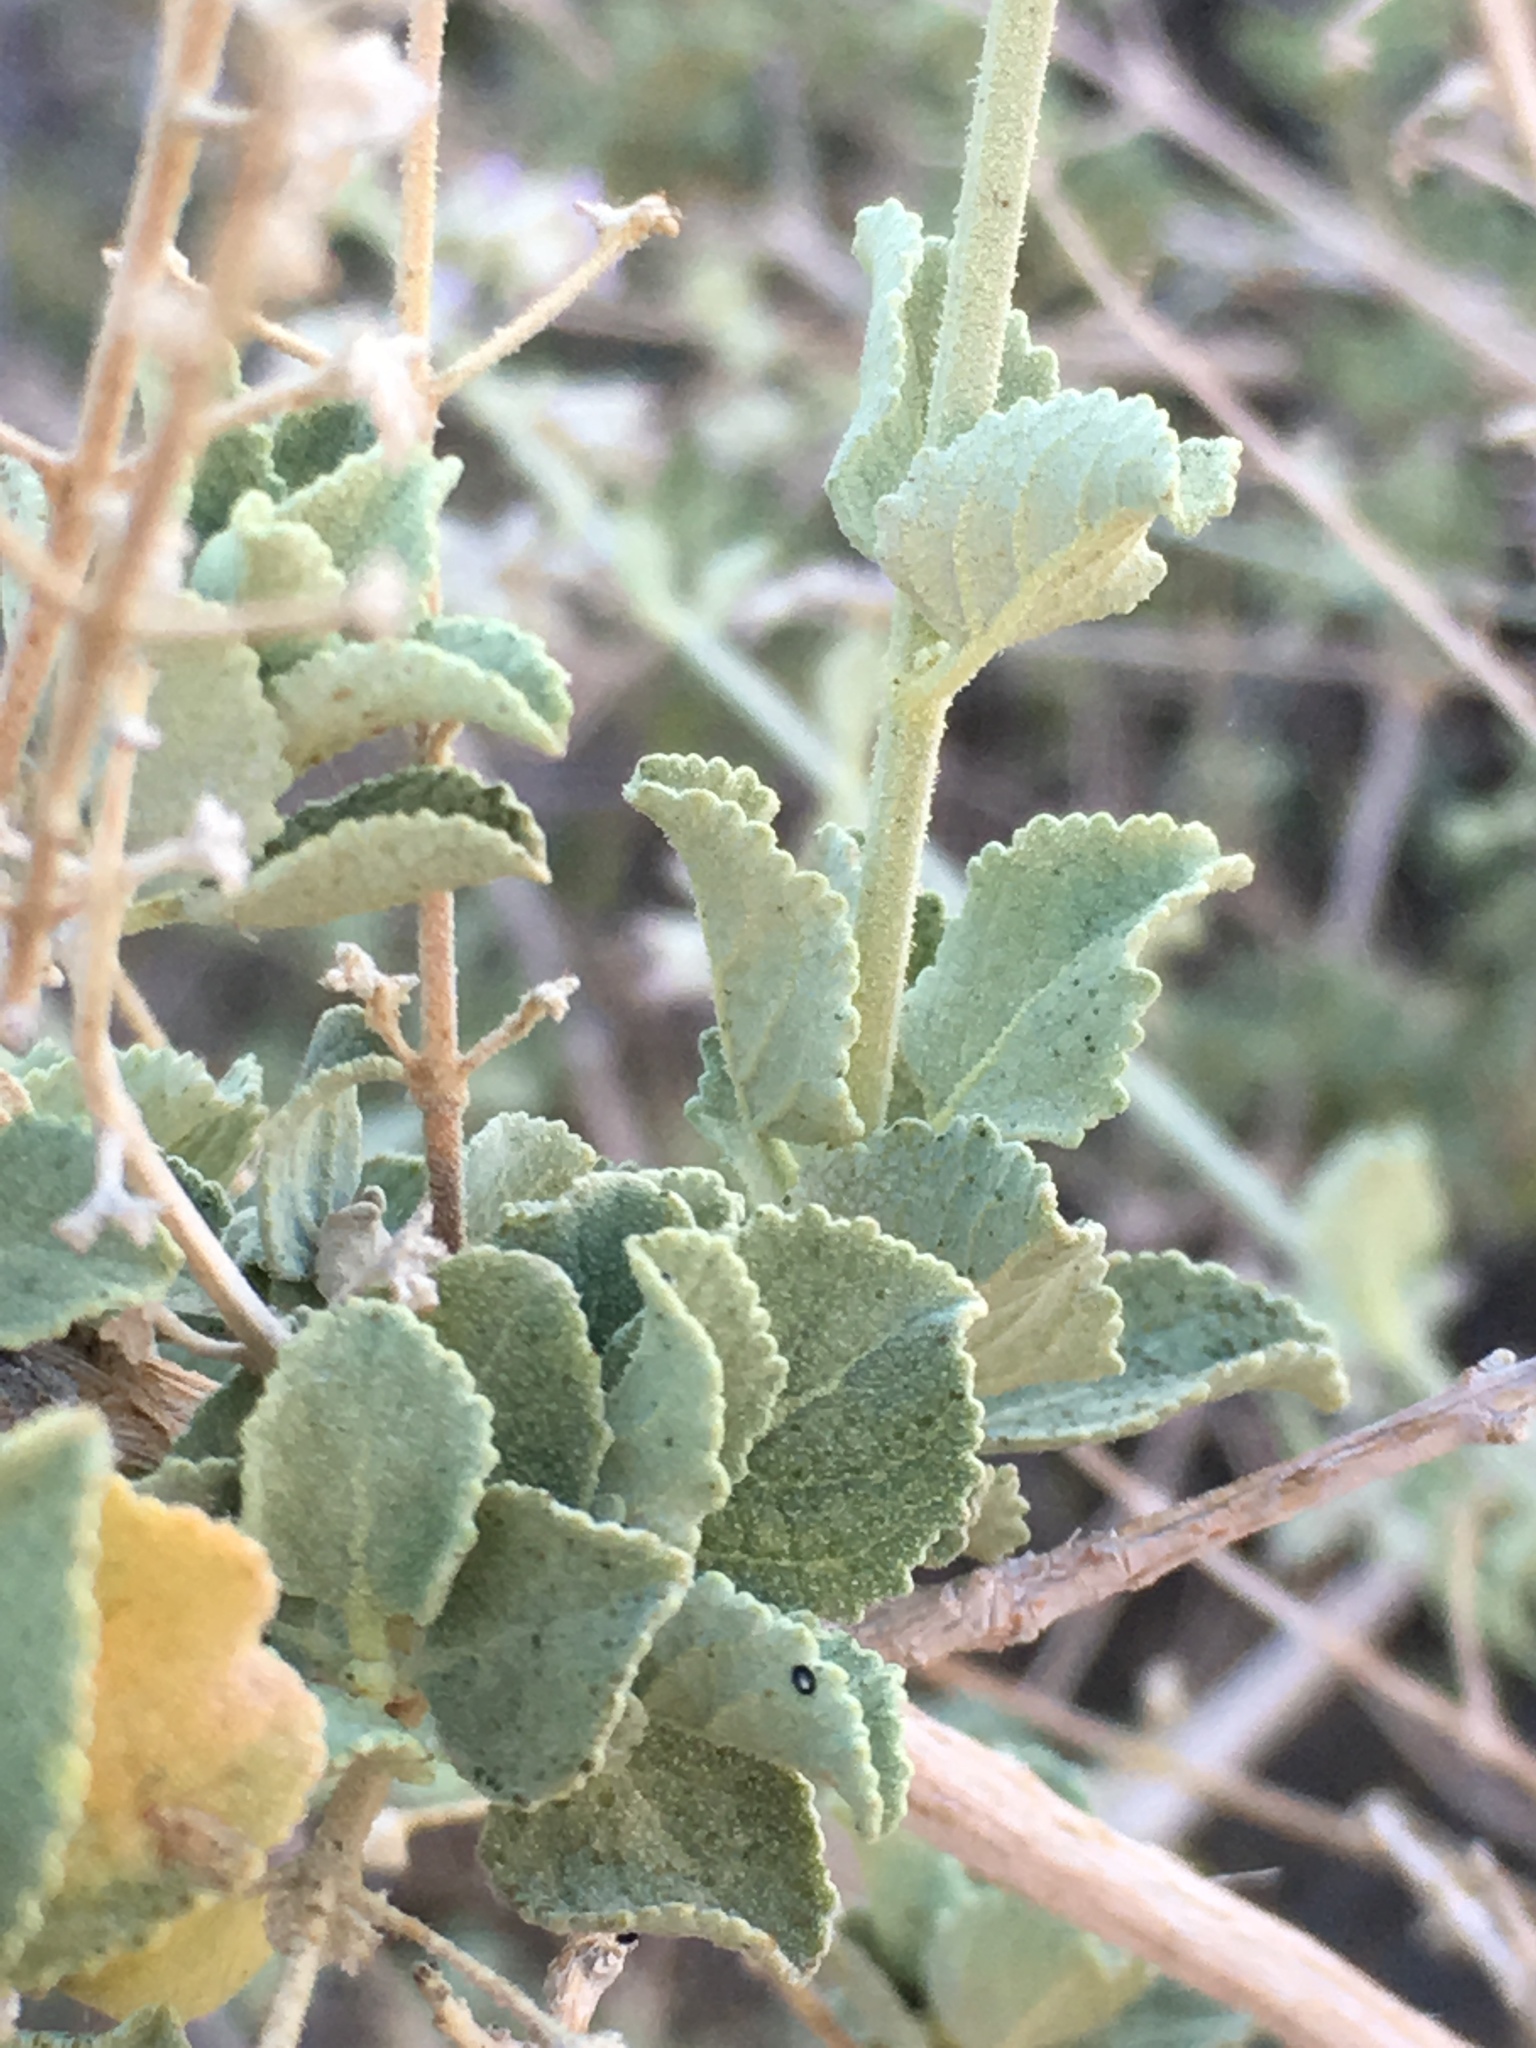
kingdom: Plantae
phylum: Tracheophyta
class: Magnoliopsida
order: Lamiales
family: Lamiaceae
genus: Condea
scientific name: Condea emoryi
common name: Chia
